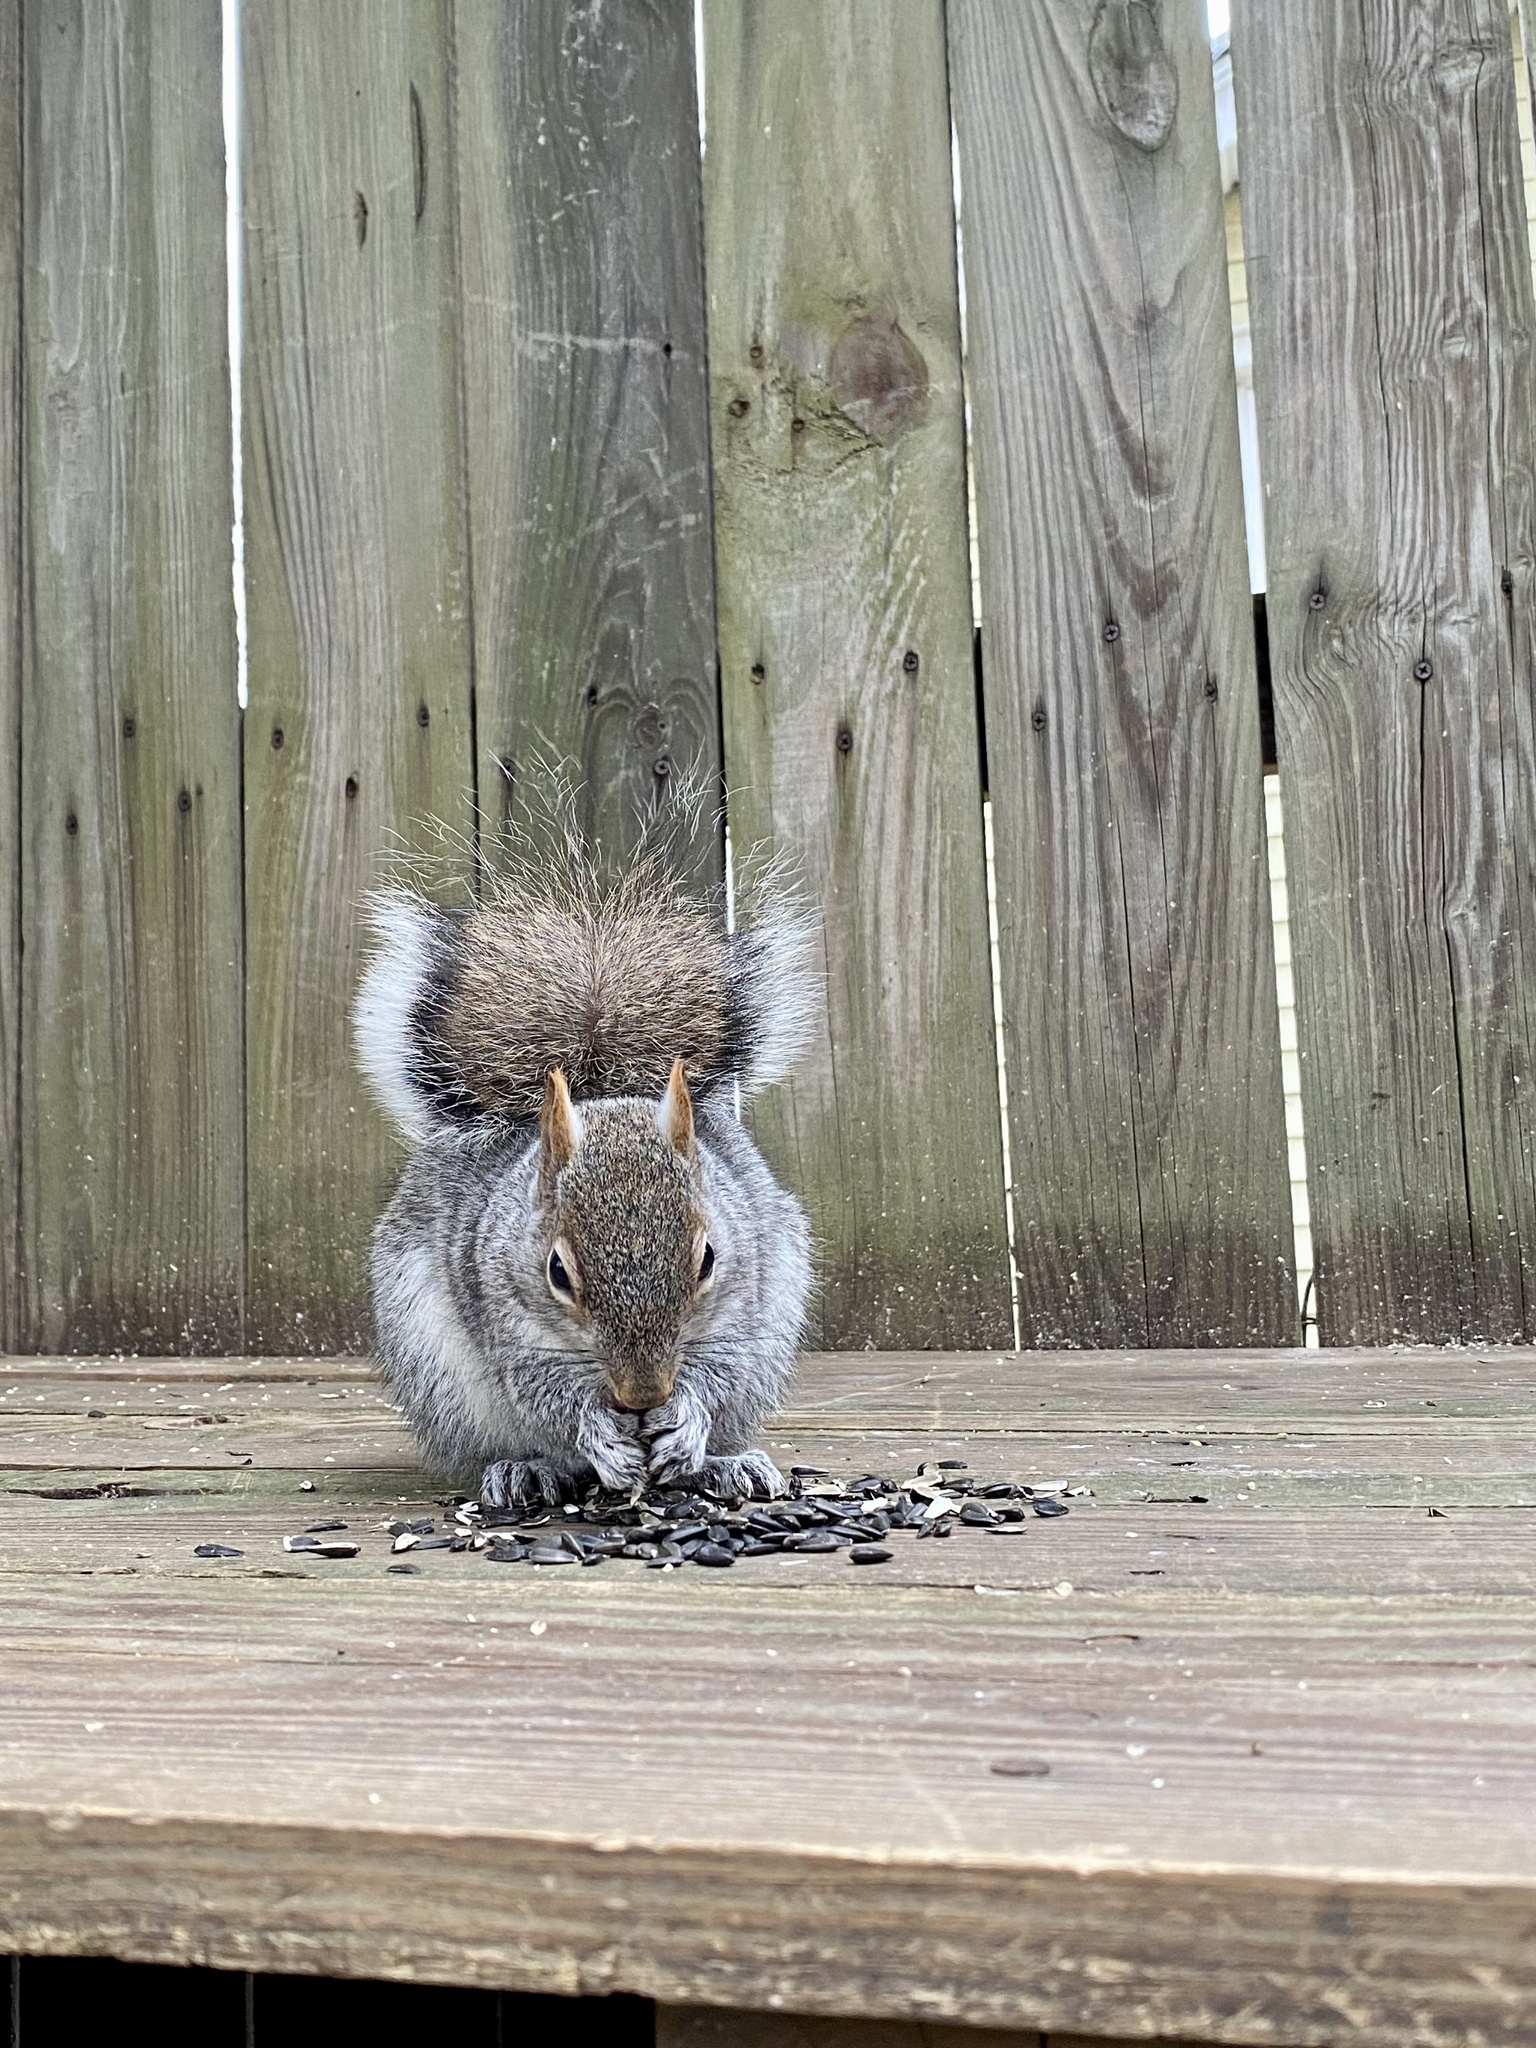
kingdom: Animalia
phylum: Chordata
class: Mammalia
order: Rodentia
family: Sciuridae
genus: Sciurus
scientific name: Sciurus carolinensis
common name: Eastern gray squirrel
